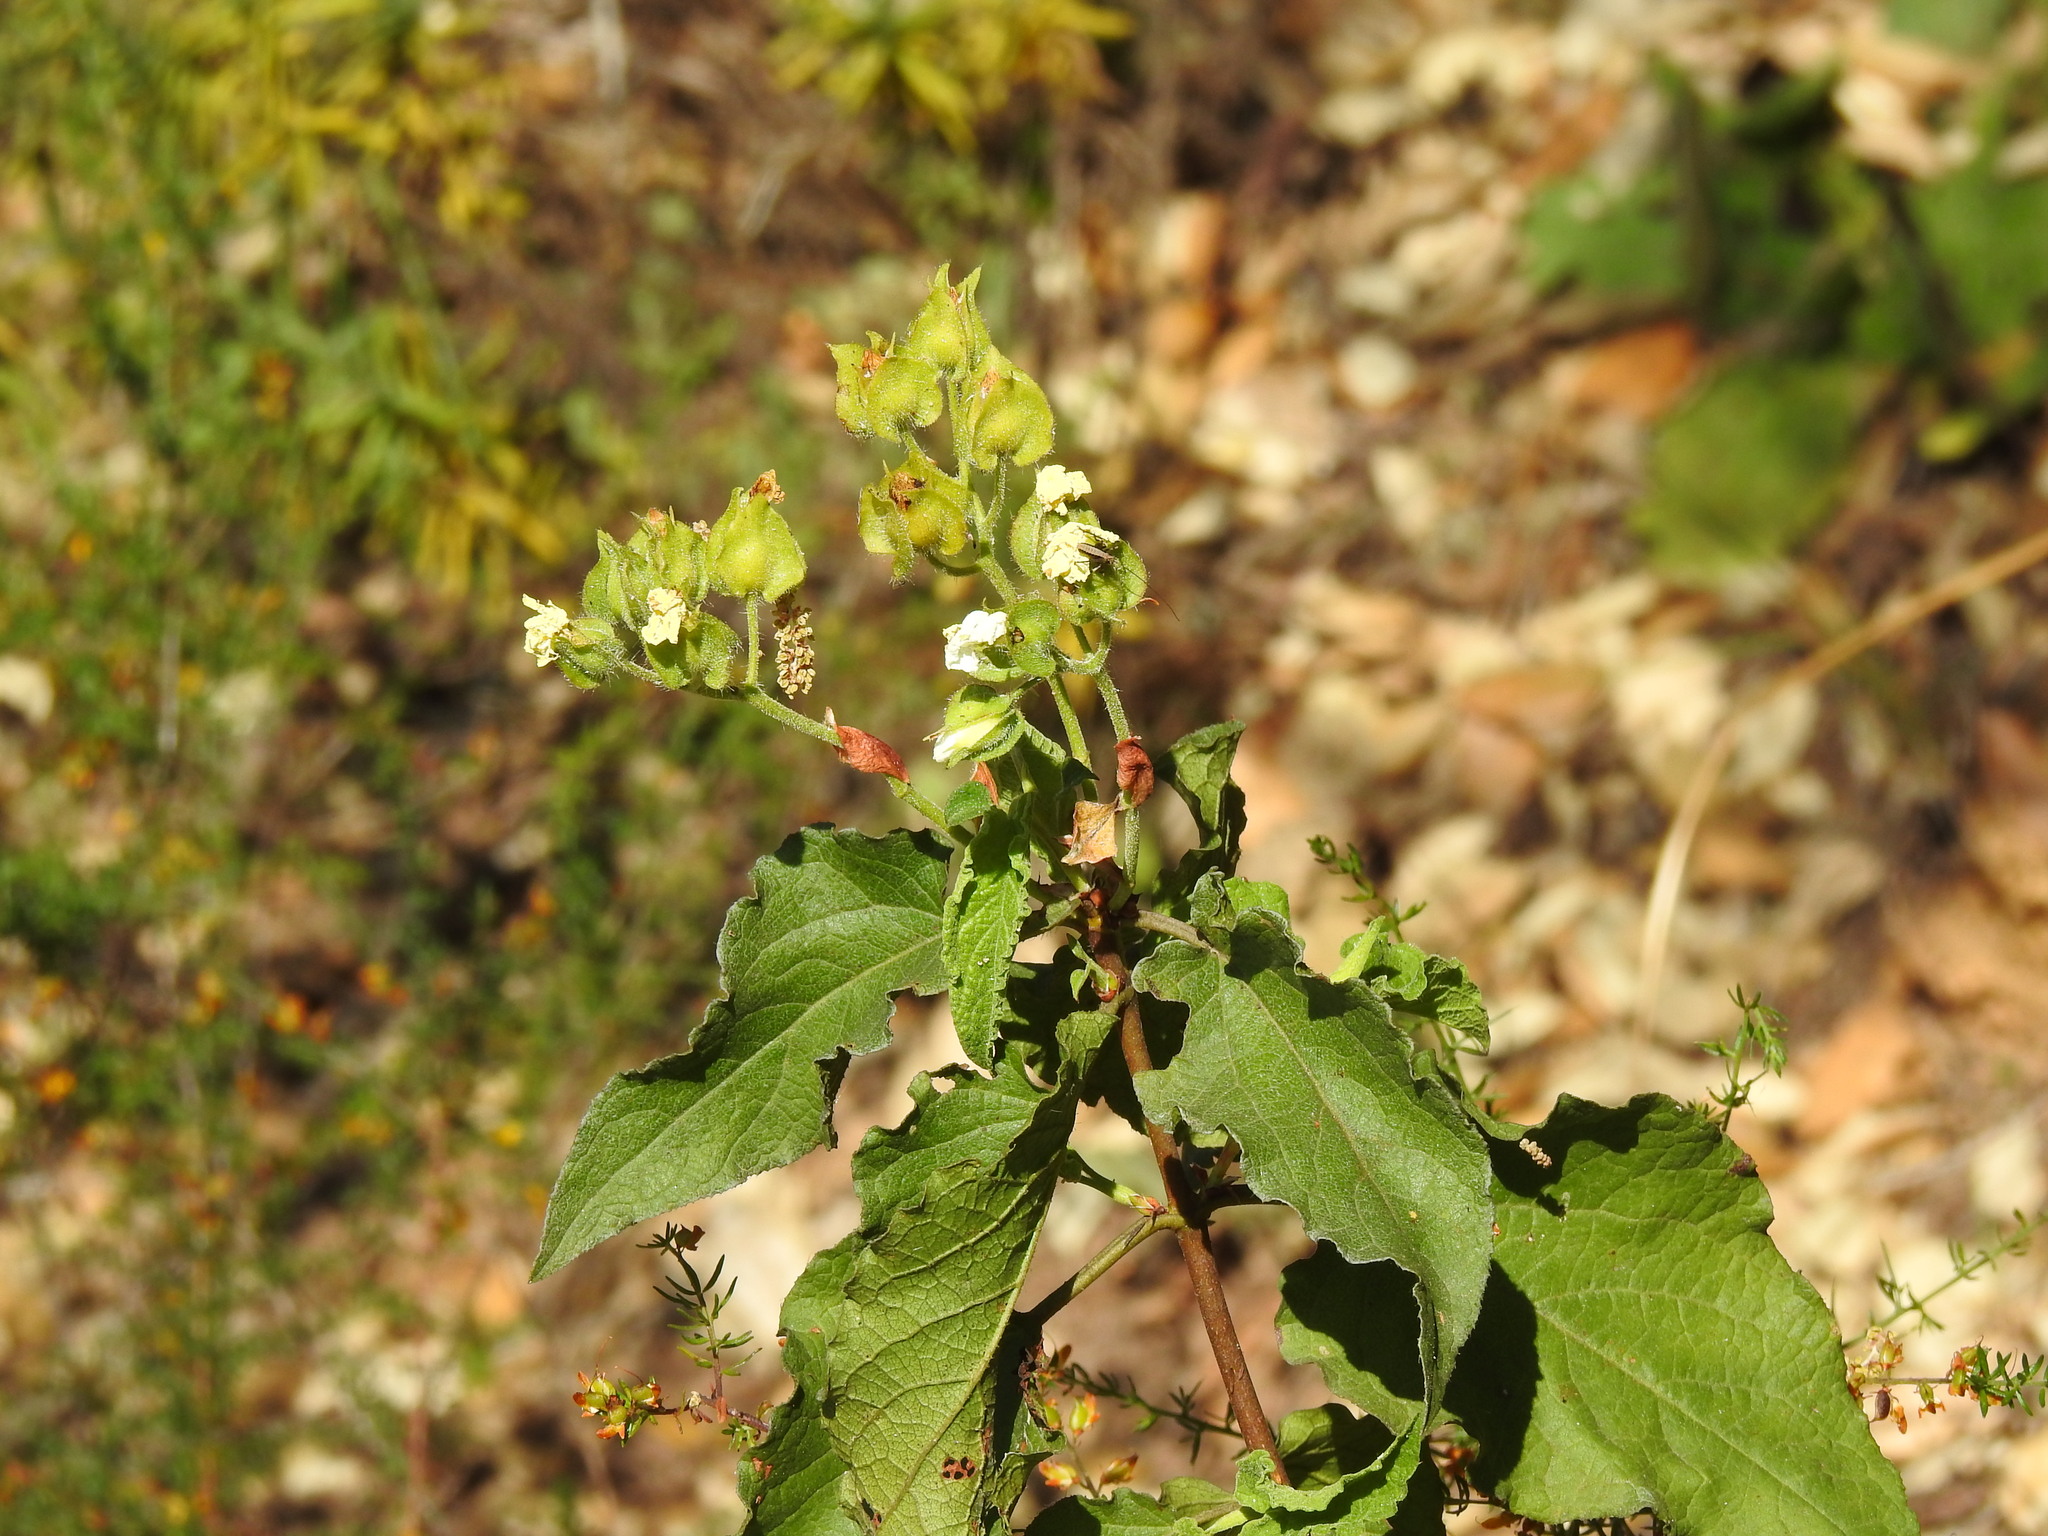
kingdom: Plantae
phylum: Tracheophyta
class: Magnoliopsida
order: Malvales
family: Cistaceae
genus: Cistus
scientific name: Cistus populifolius
